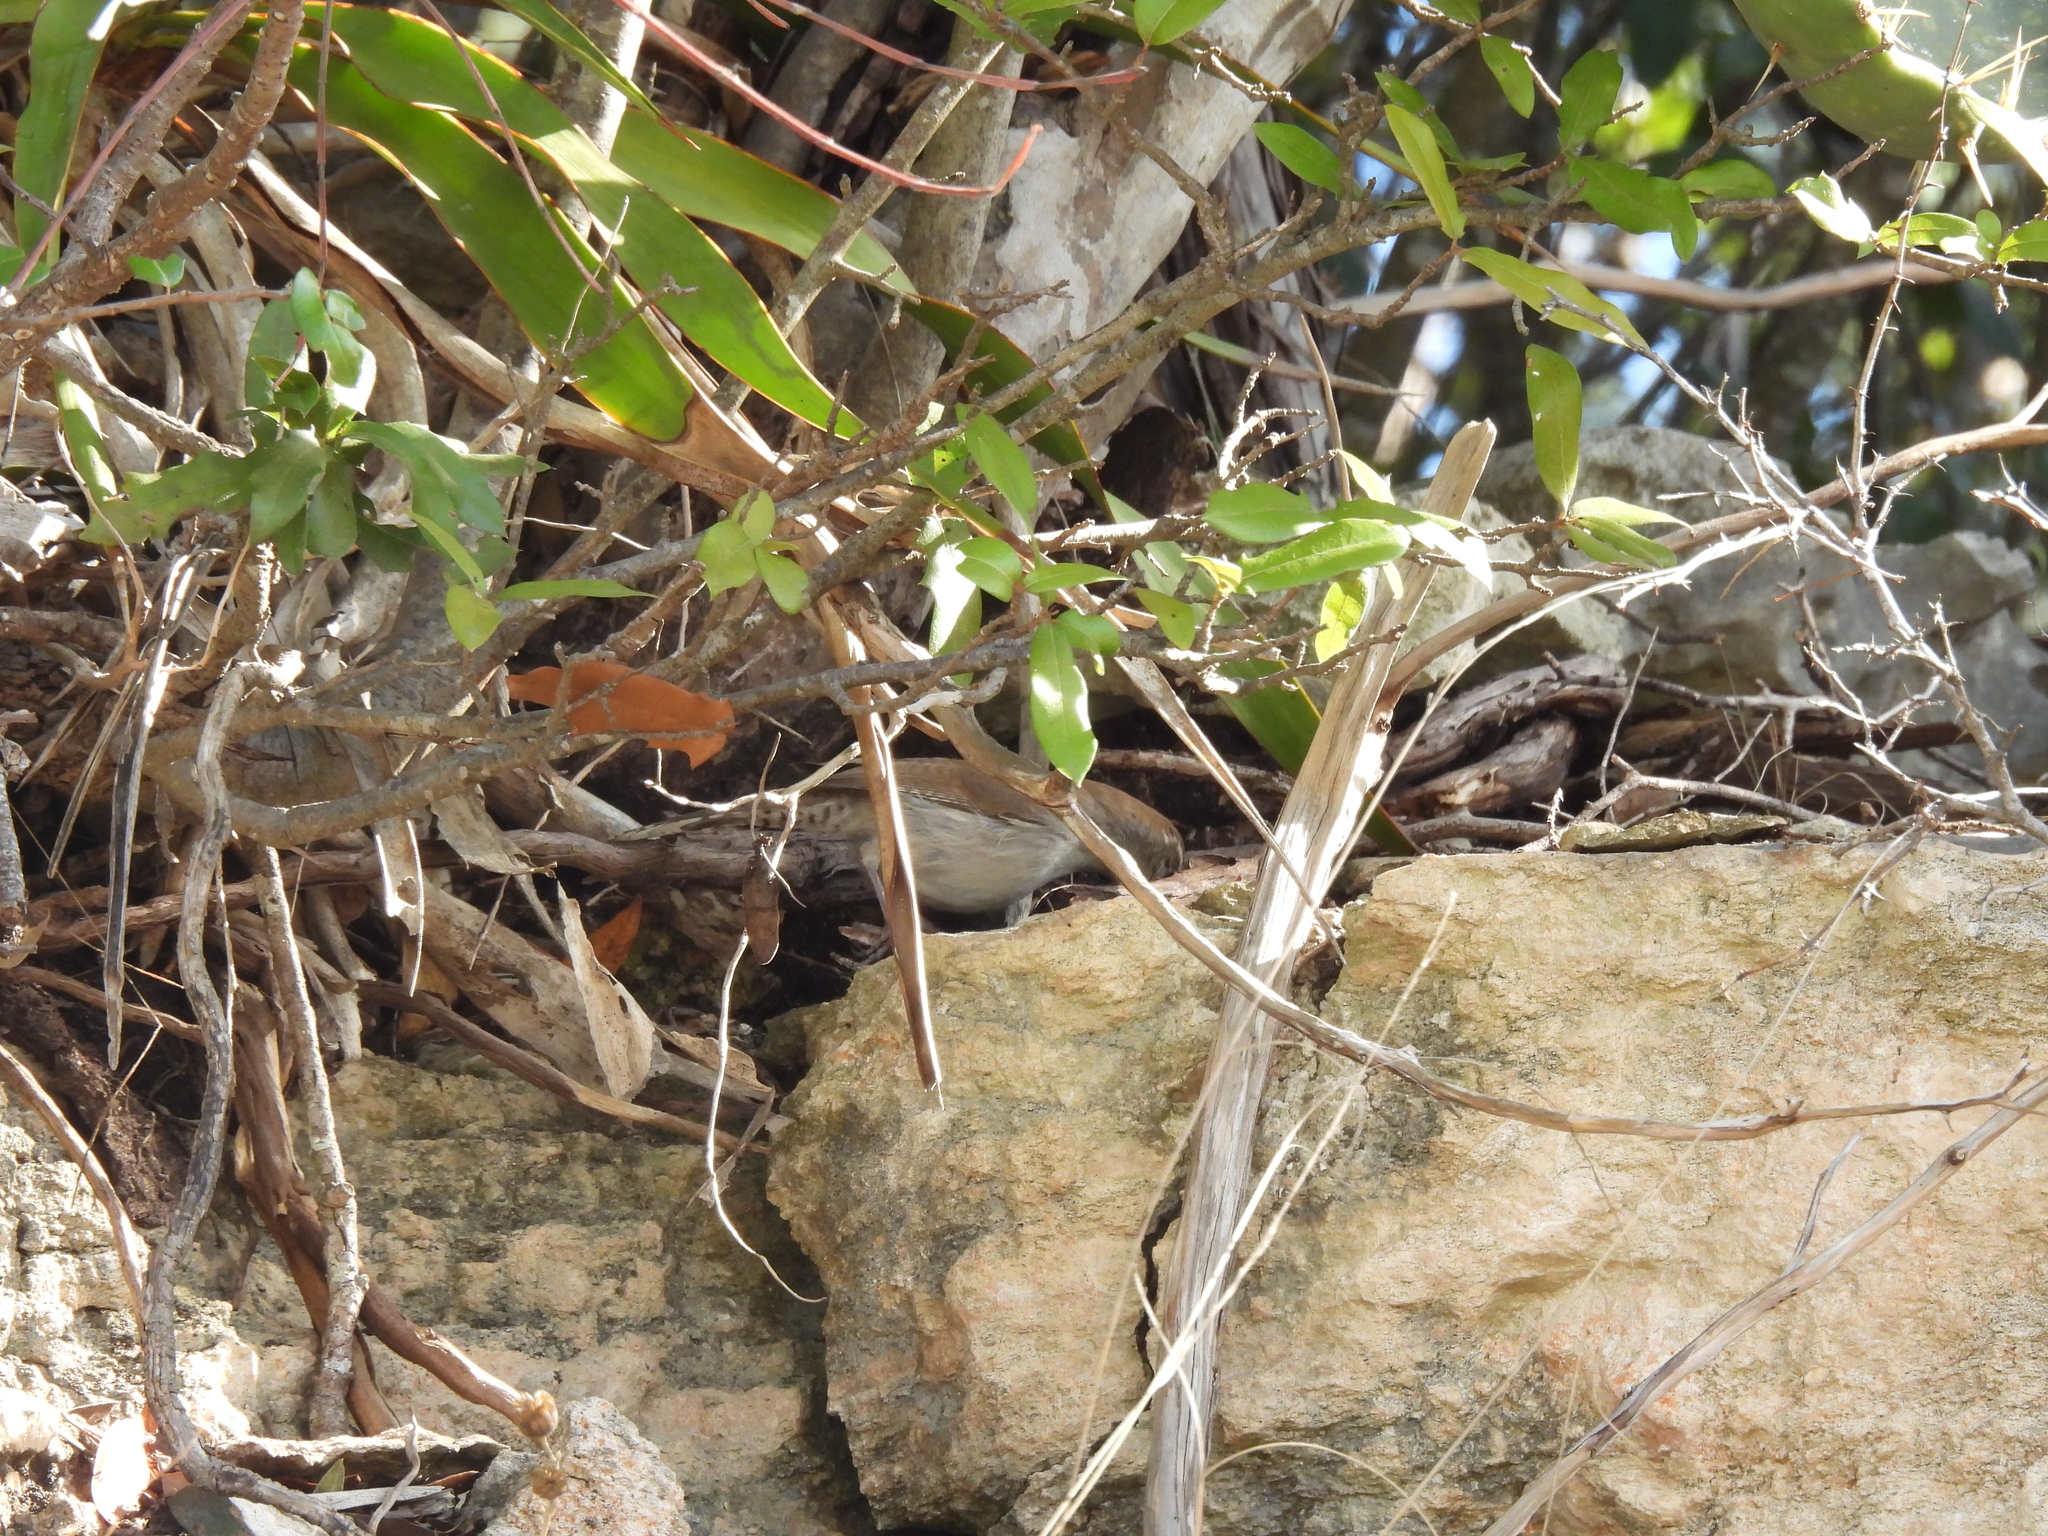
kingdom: Animalia
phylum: Chordata
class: Aves
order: Passeriformes
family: Troglodytidae
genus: Thryomanes
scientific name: Thryomanes bewickii
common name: Bewick's wren
